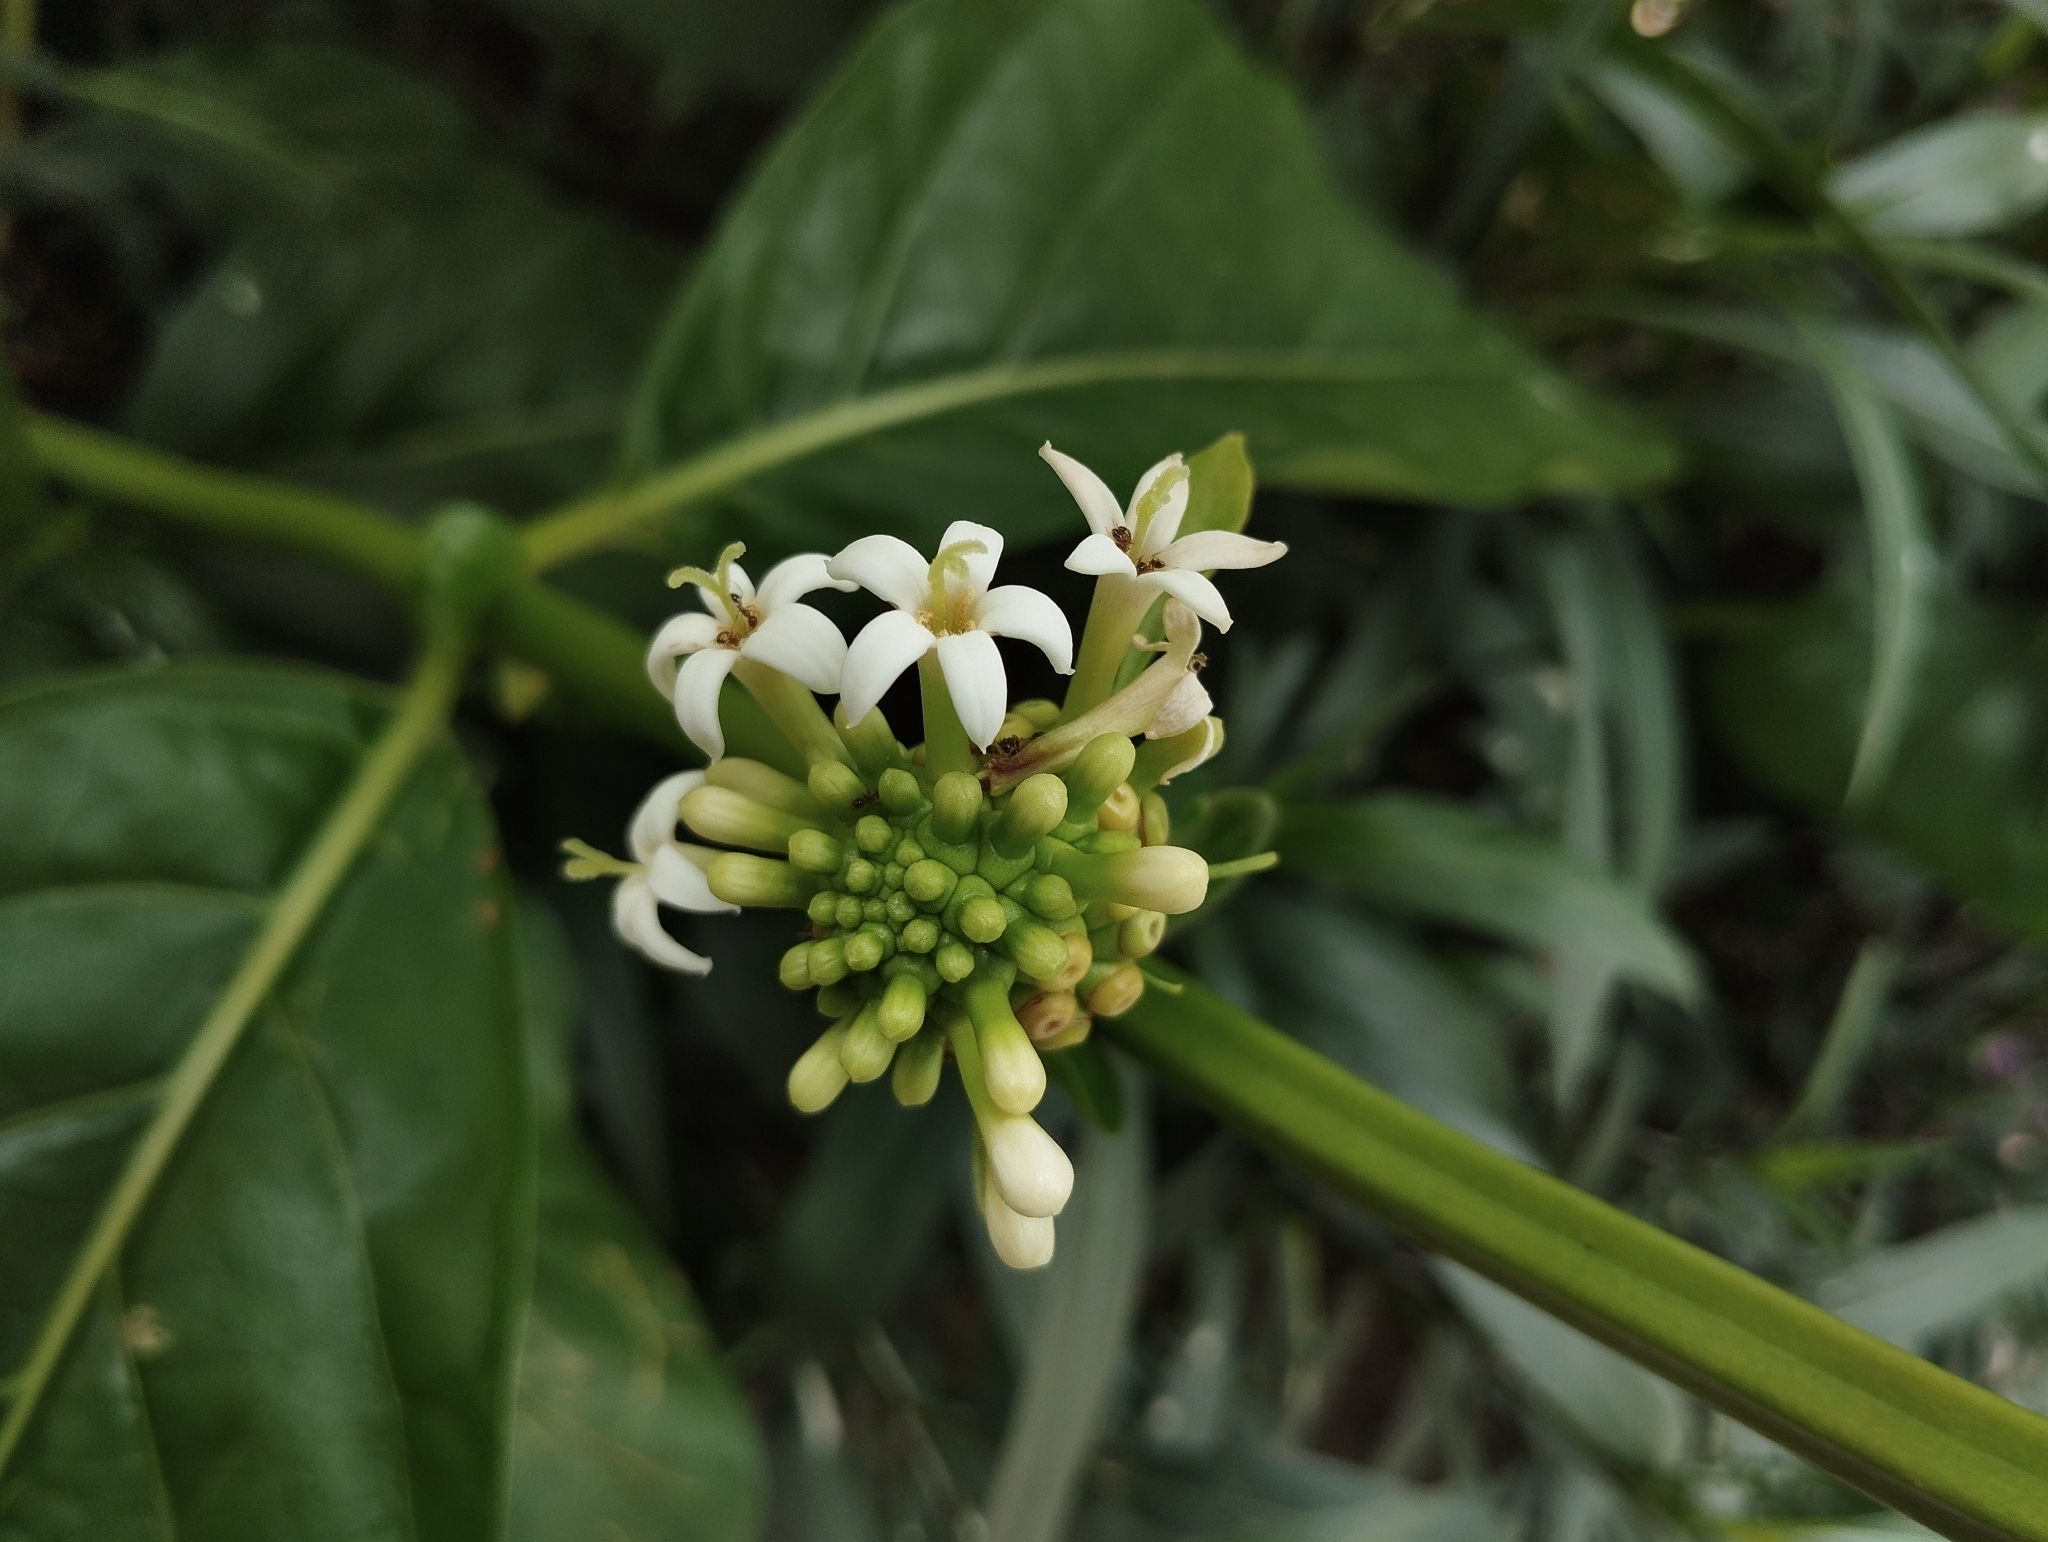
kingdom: Plantae
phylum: Tracheophyta
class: Magnoliopsida
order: Gentianales
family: Rubiaceae
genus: Morinda
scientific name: Morinda citrifolia
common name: Indian-mulberry
